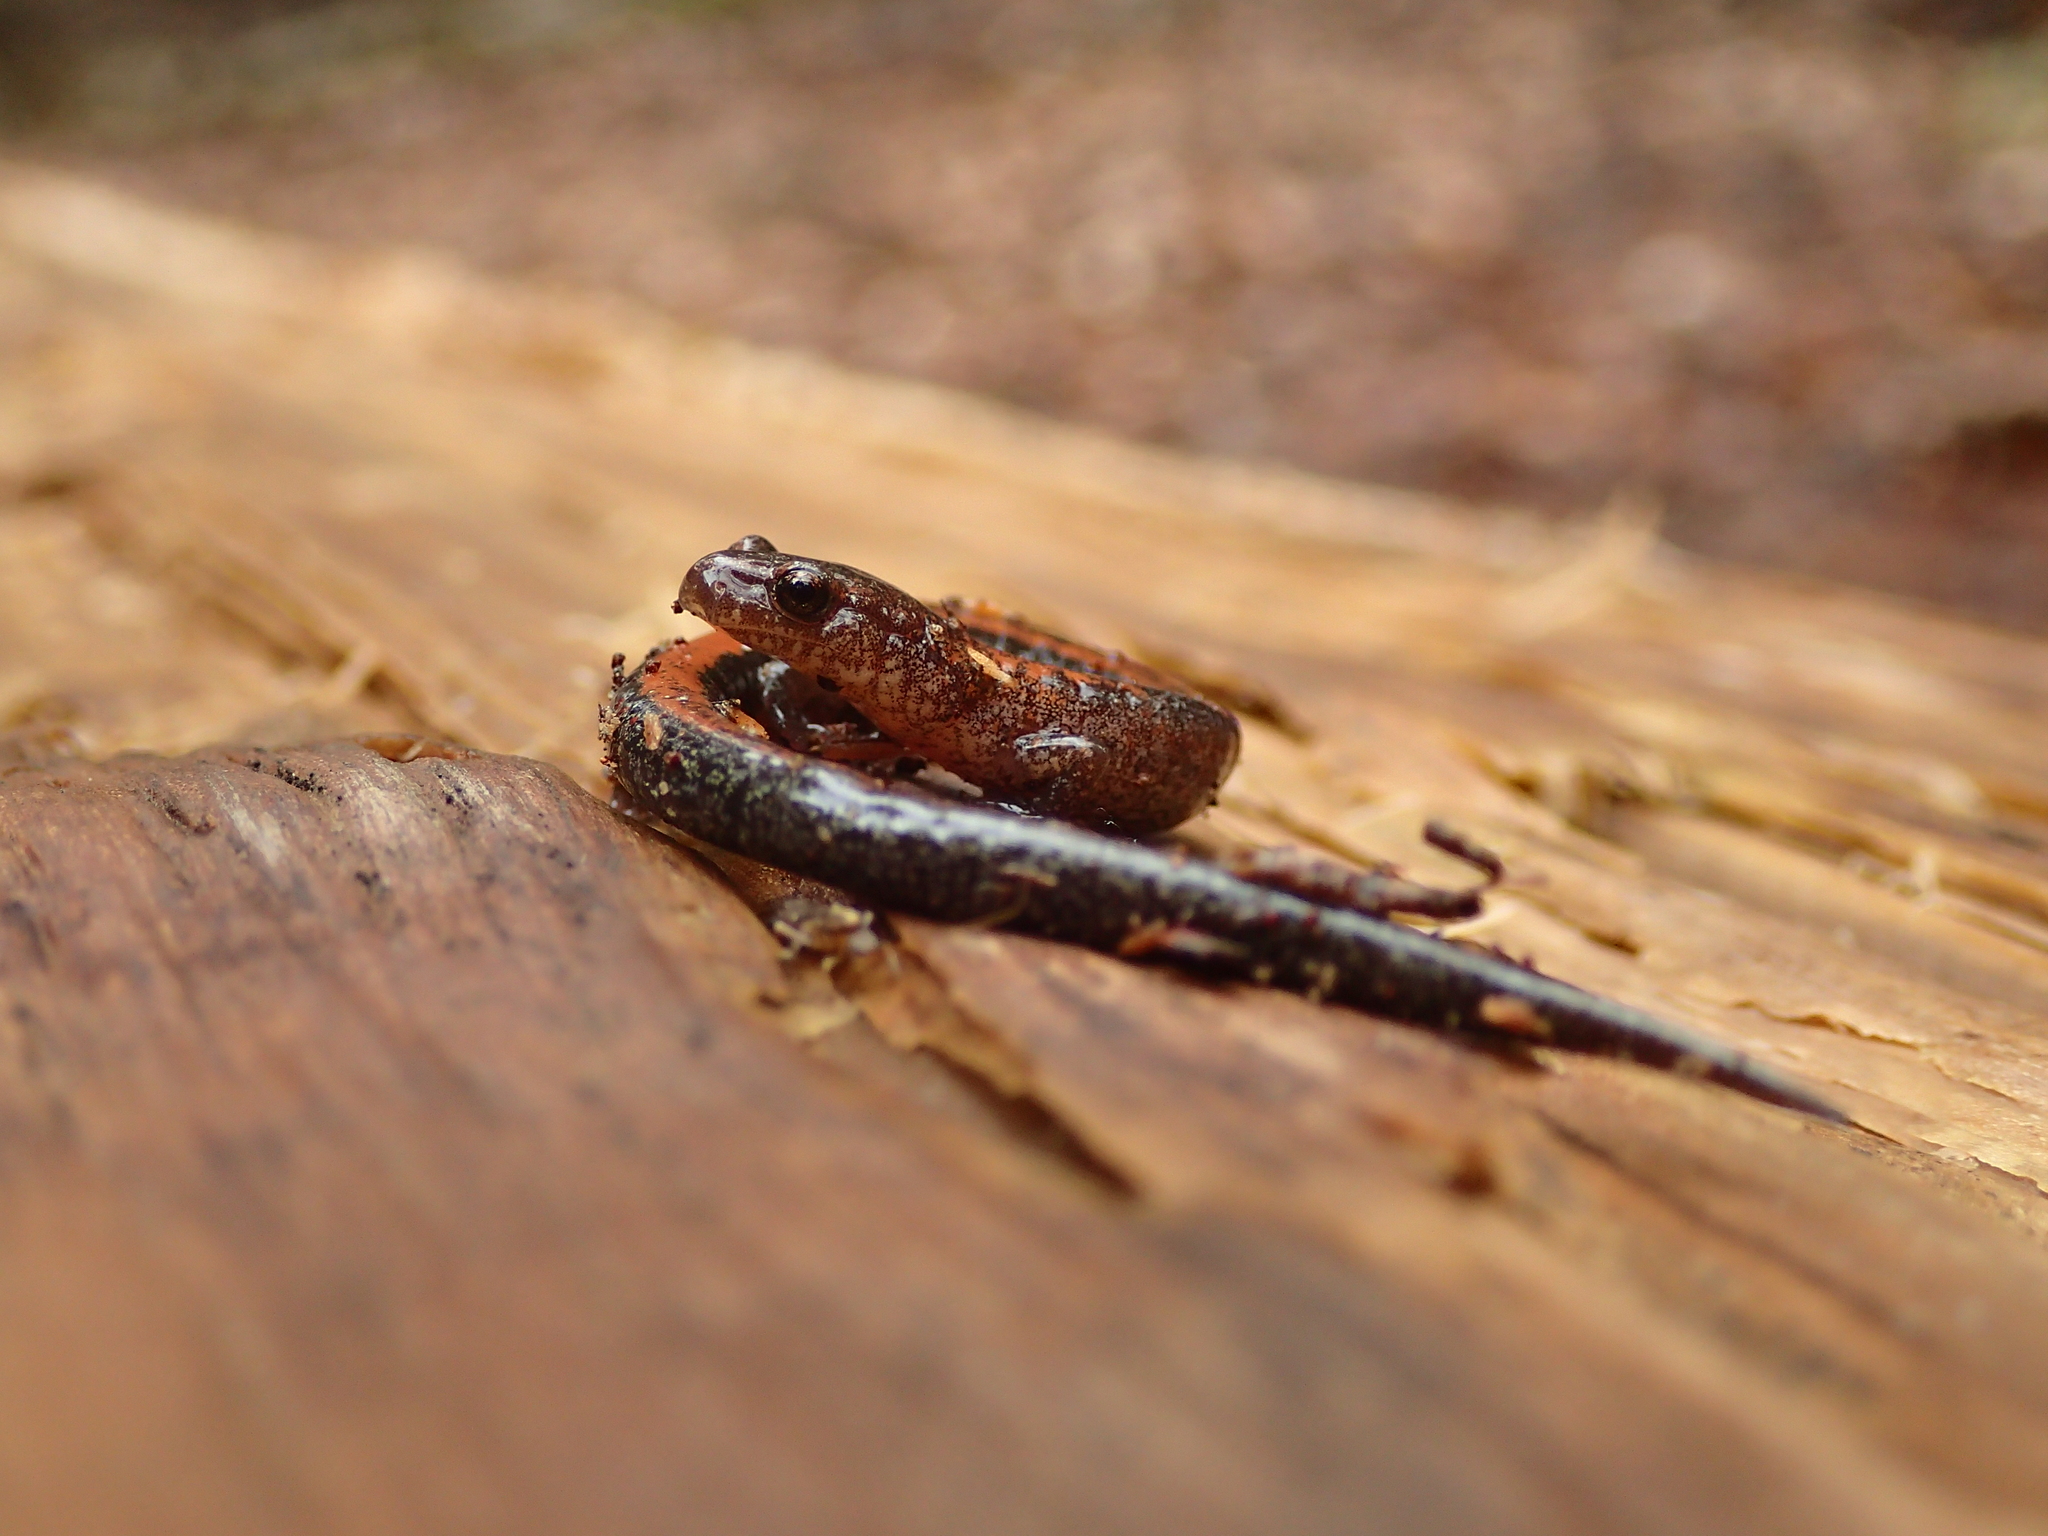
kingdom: Animalia
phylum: Chordata
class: Amphibia
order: Caudata
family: Plethodontidae
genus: Plethodon
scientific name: Plethodon cinereus
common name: Redback salamander
